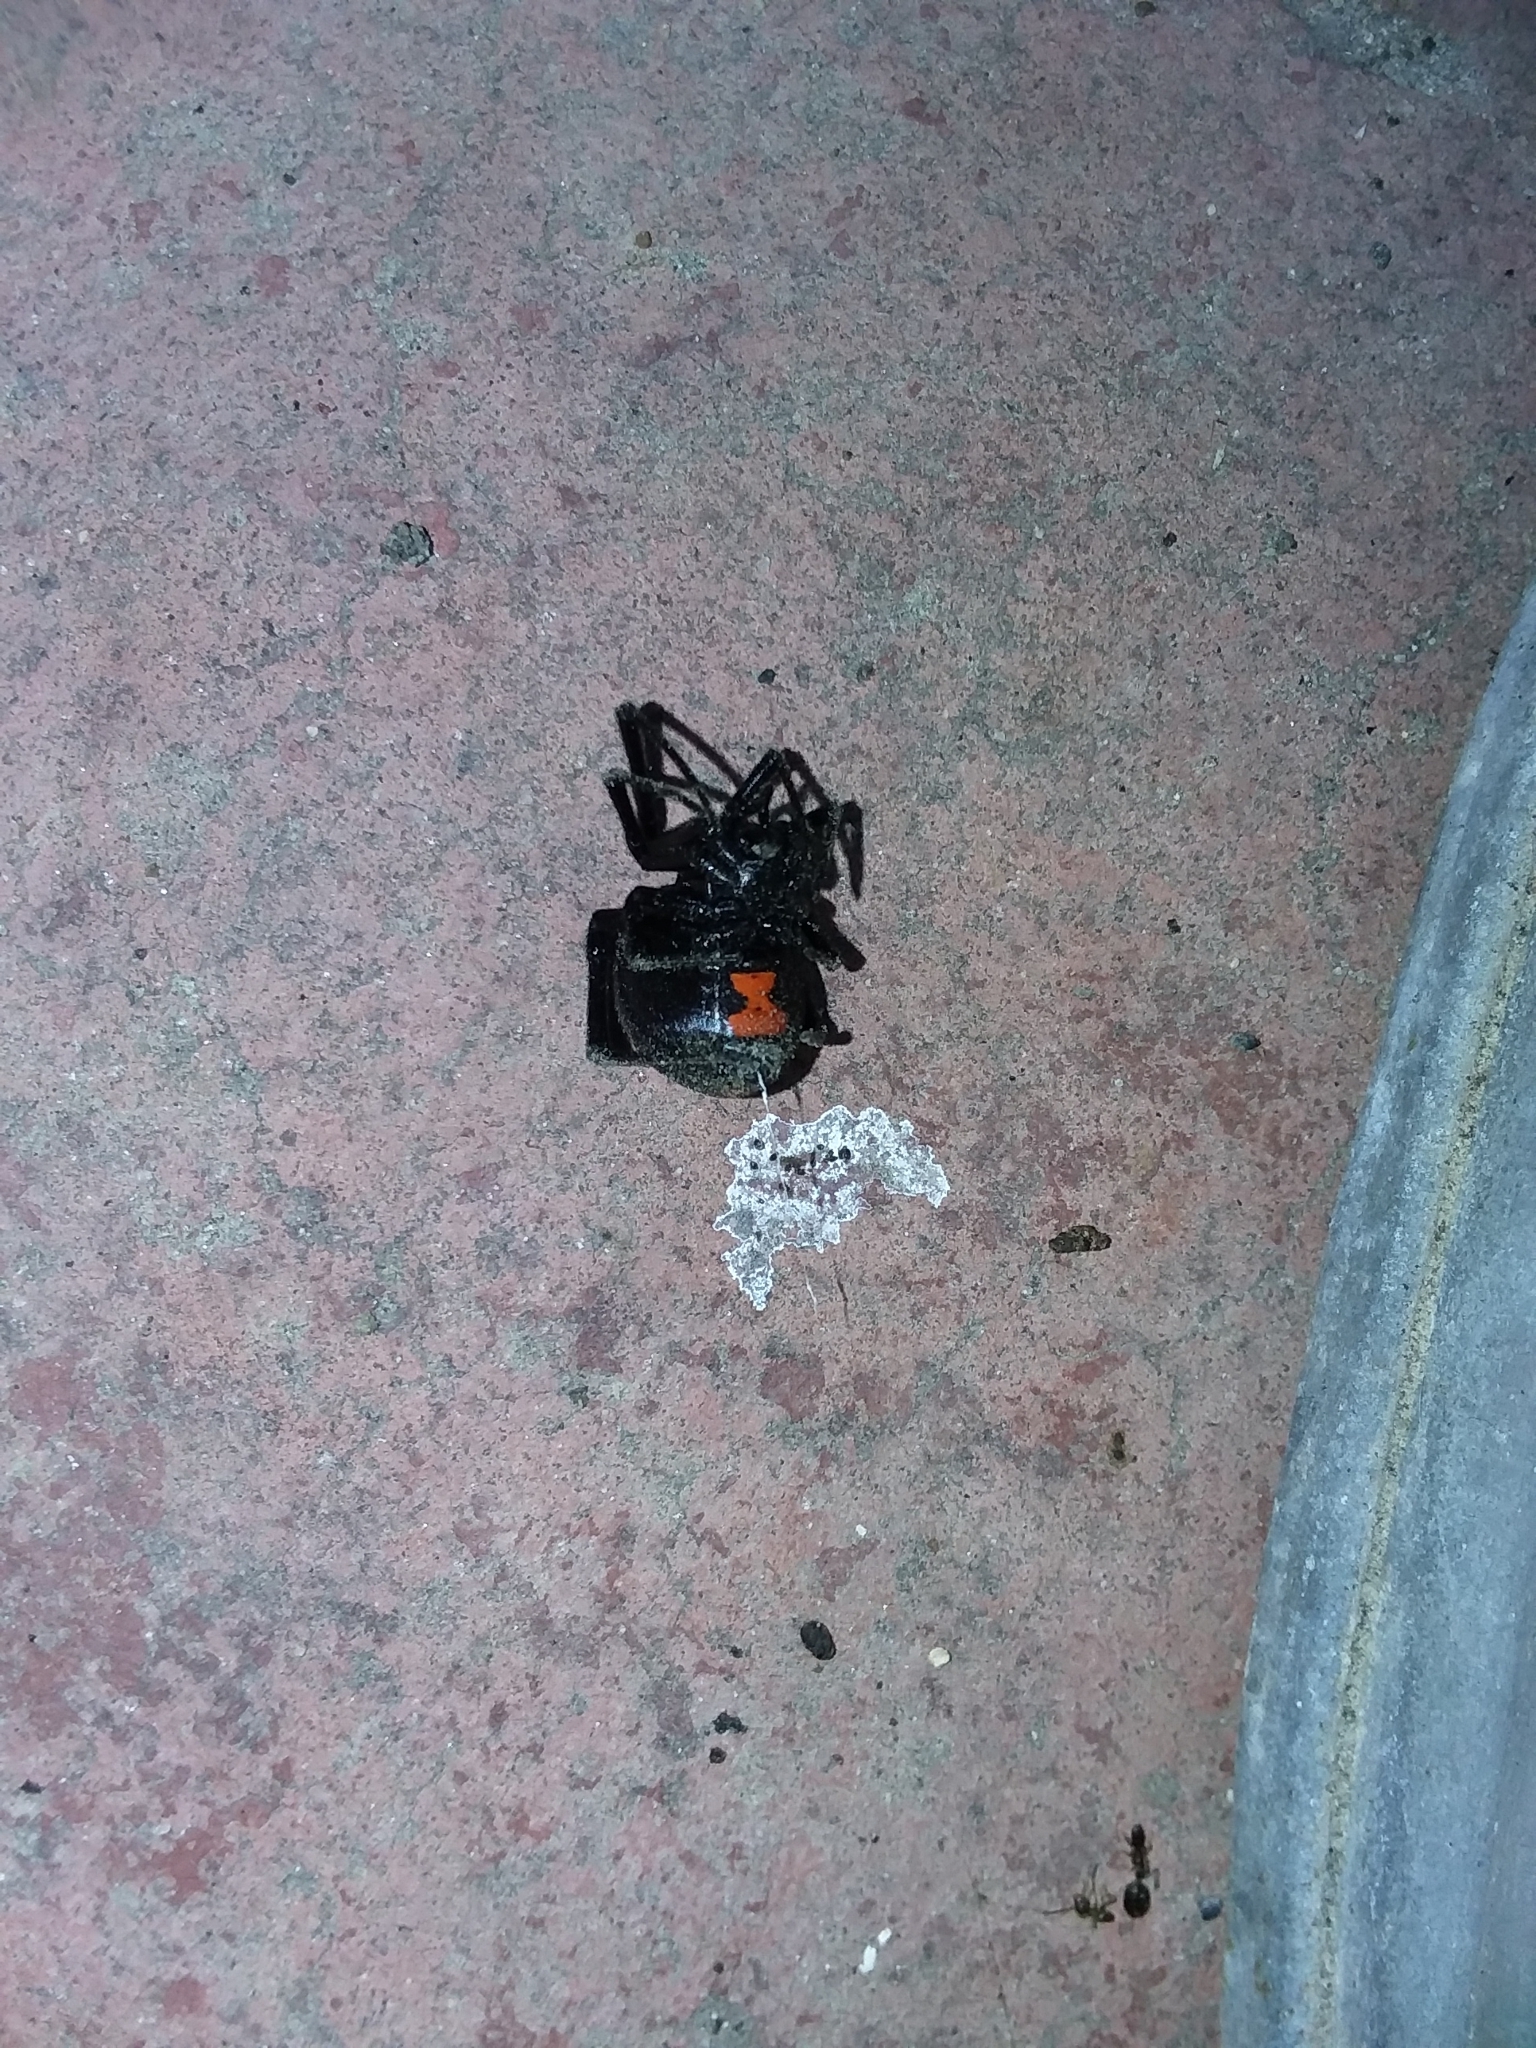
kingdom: Animalia
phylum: Arthropoda
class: Arachnida
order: Araneae
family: Theridiidae
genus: Latrodectus
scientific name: Latrodectus mactans
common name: Cobweb spiders
